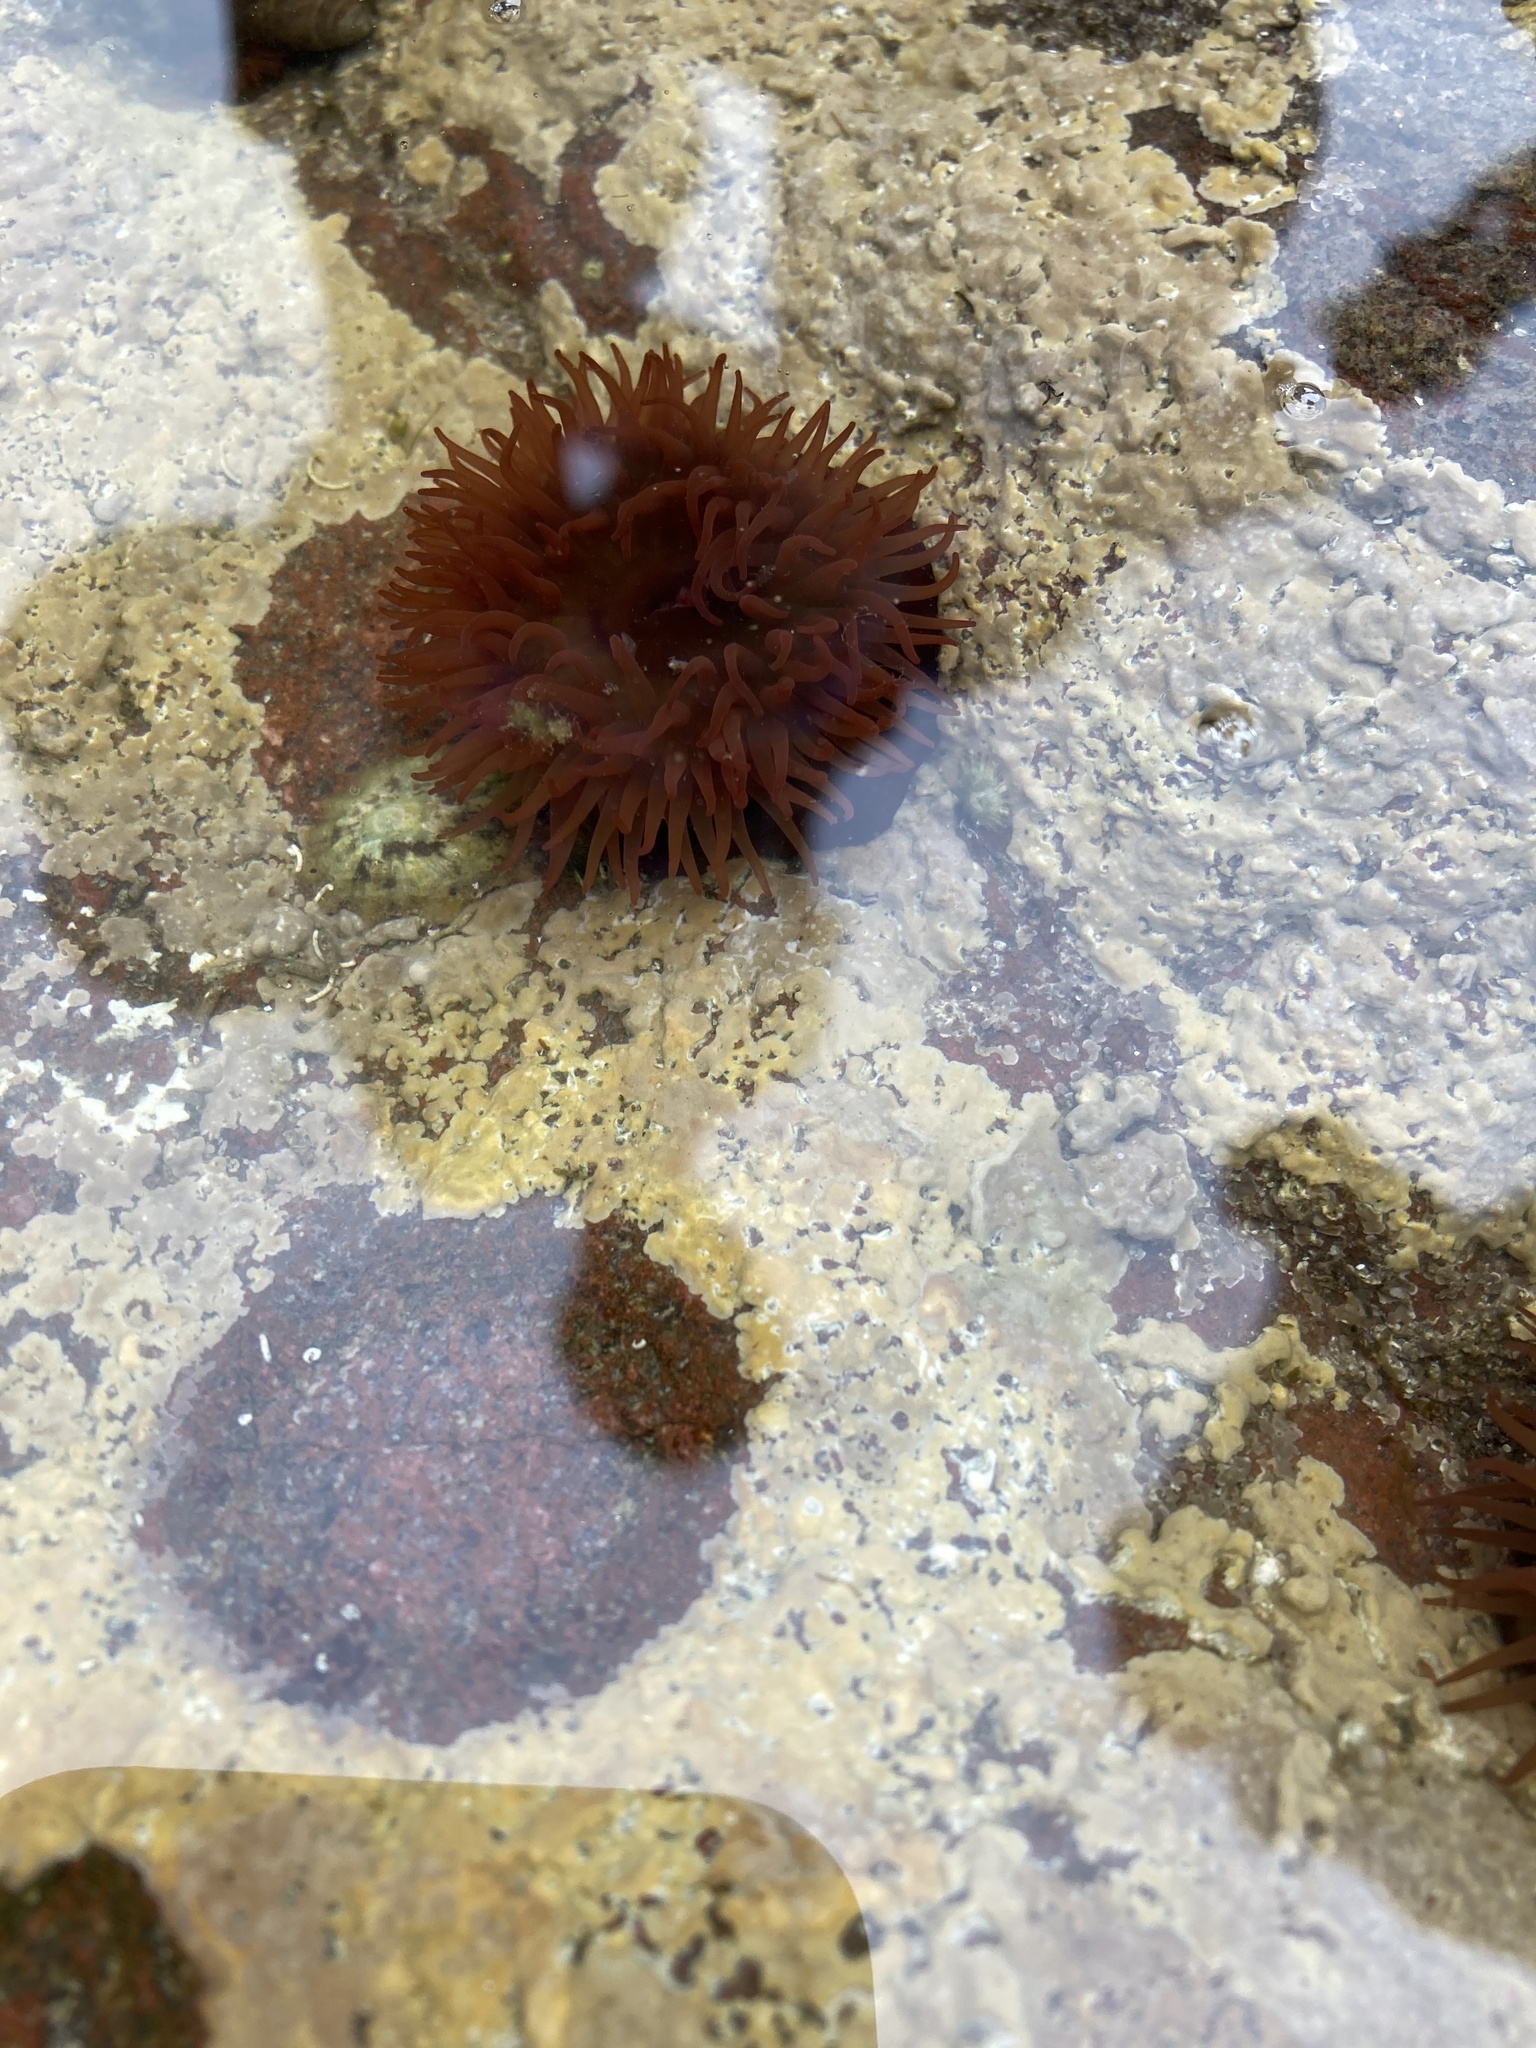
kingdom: Animalia
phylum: Cnidaria
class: Anthozoa
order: Actiniaria
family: Actiniidae
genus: Actinia
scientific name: Actinia equina
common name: Beadlet anemone
